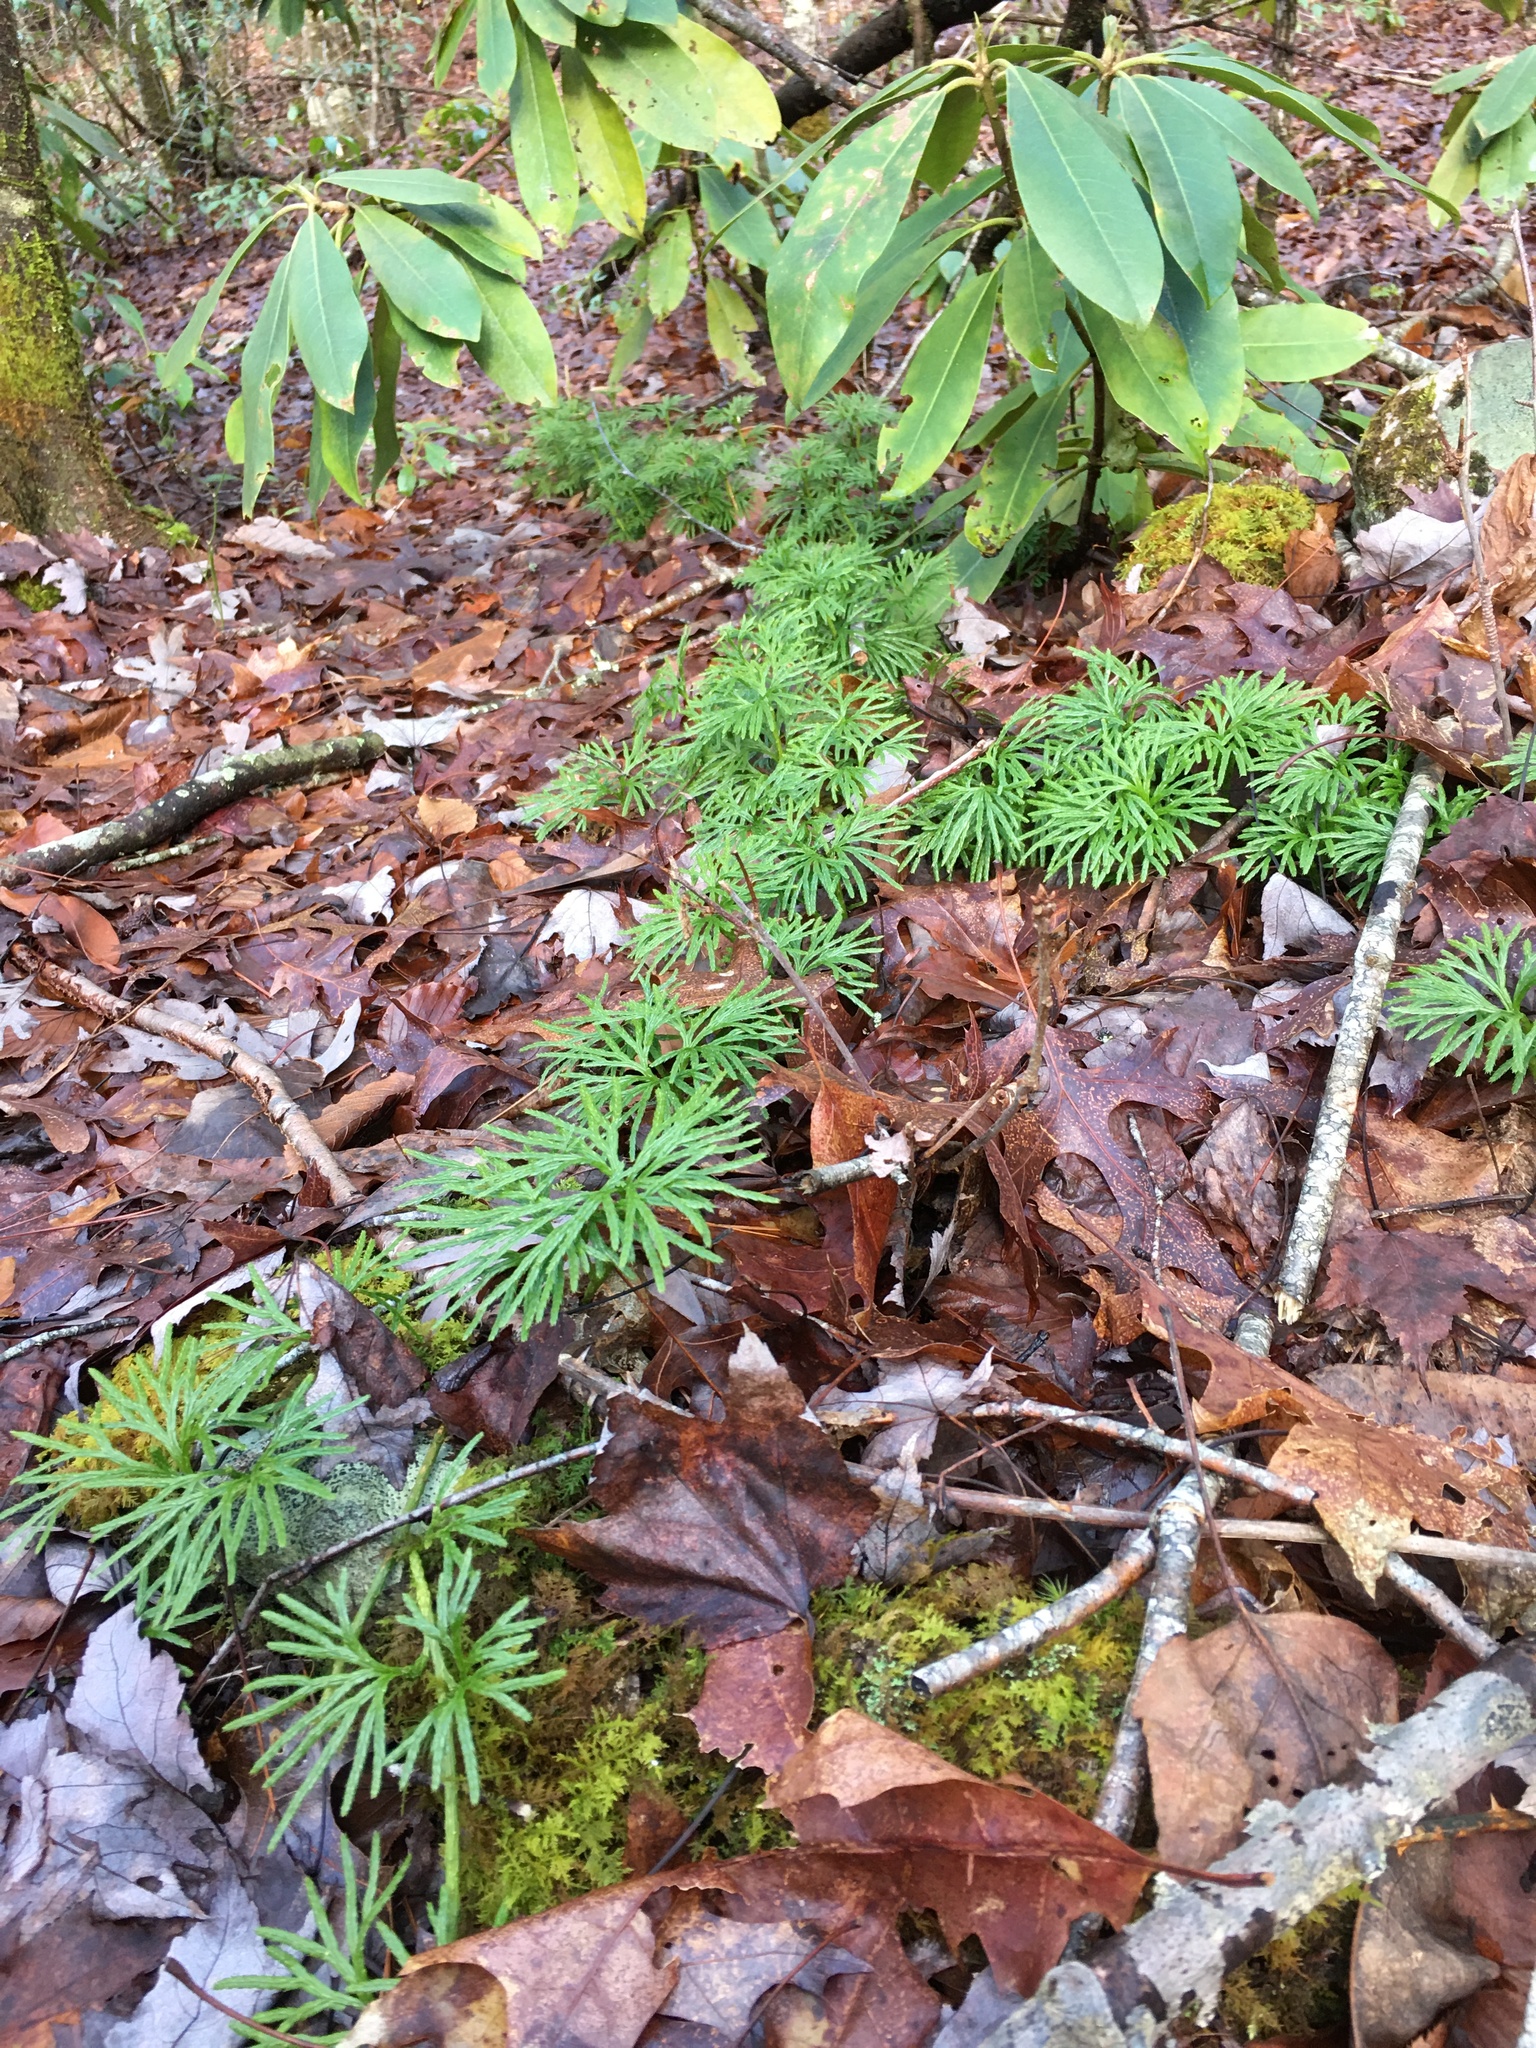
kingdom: Plantae
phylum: Tracheophyta
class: Lycopodiopsida
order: Lycopodiales
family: Lycopodiaceae
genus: Diphasiastrum
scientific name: Diphasiastrum digitatum
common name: Southern running-pine
